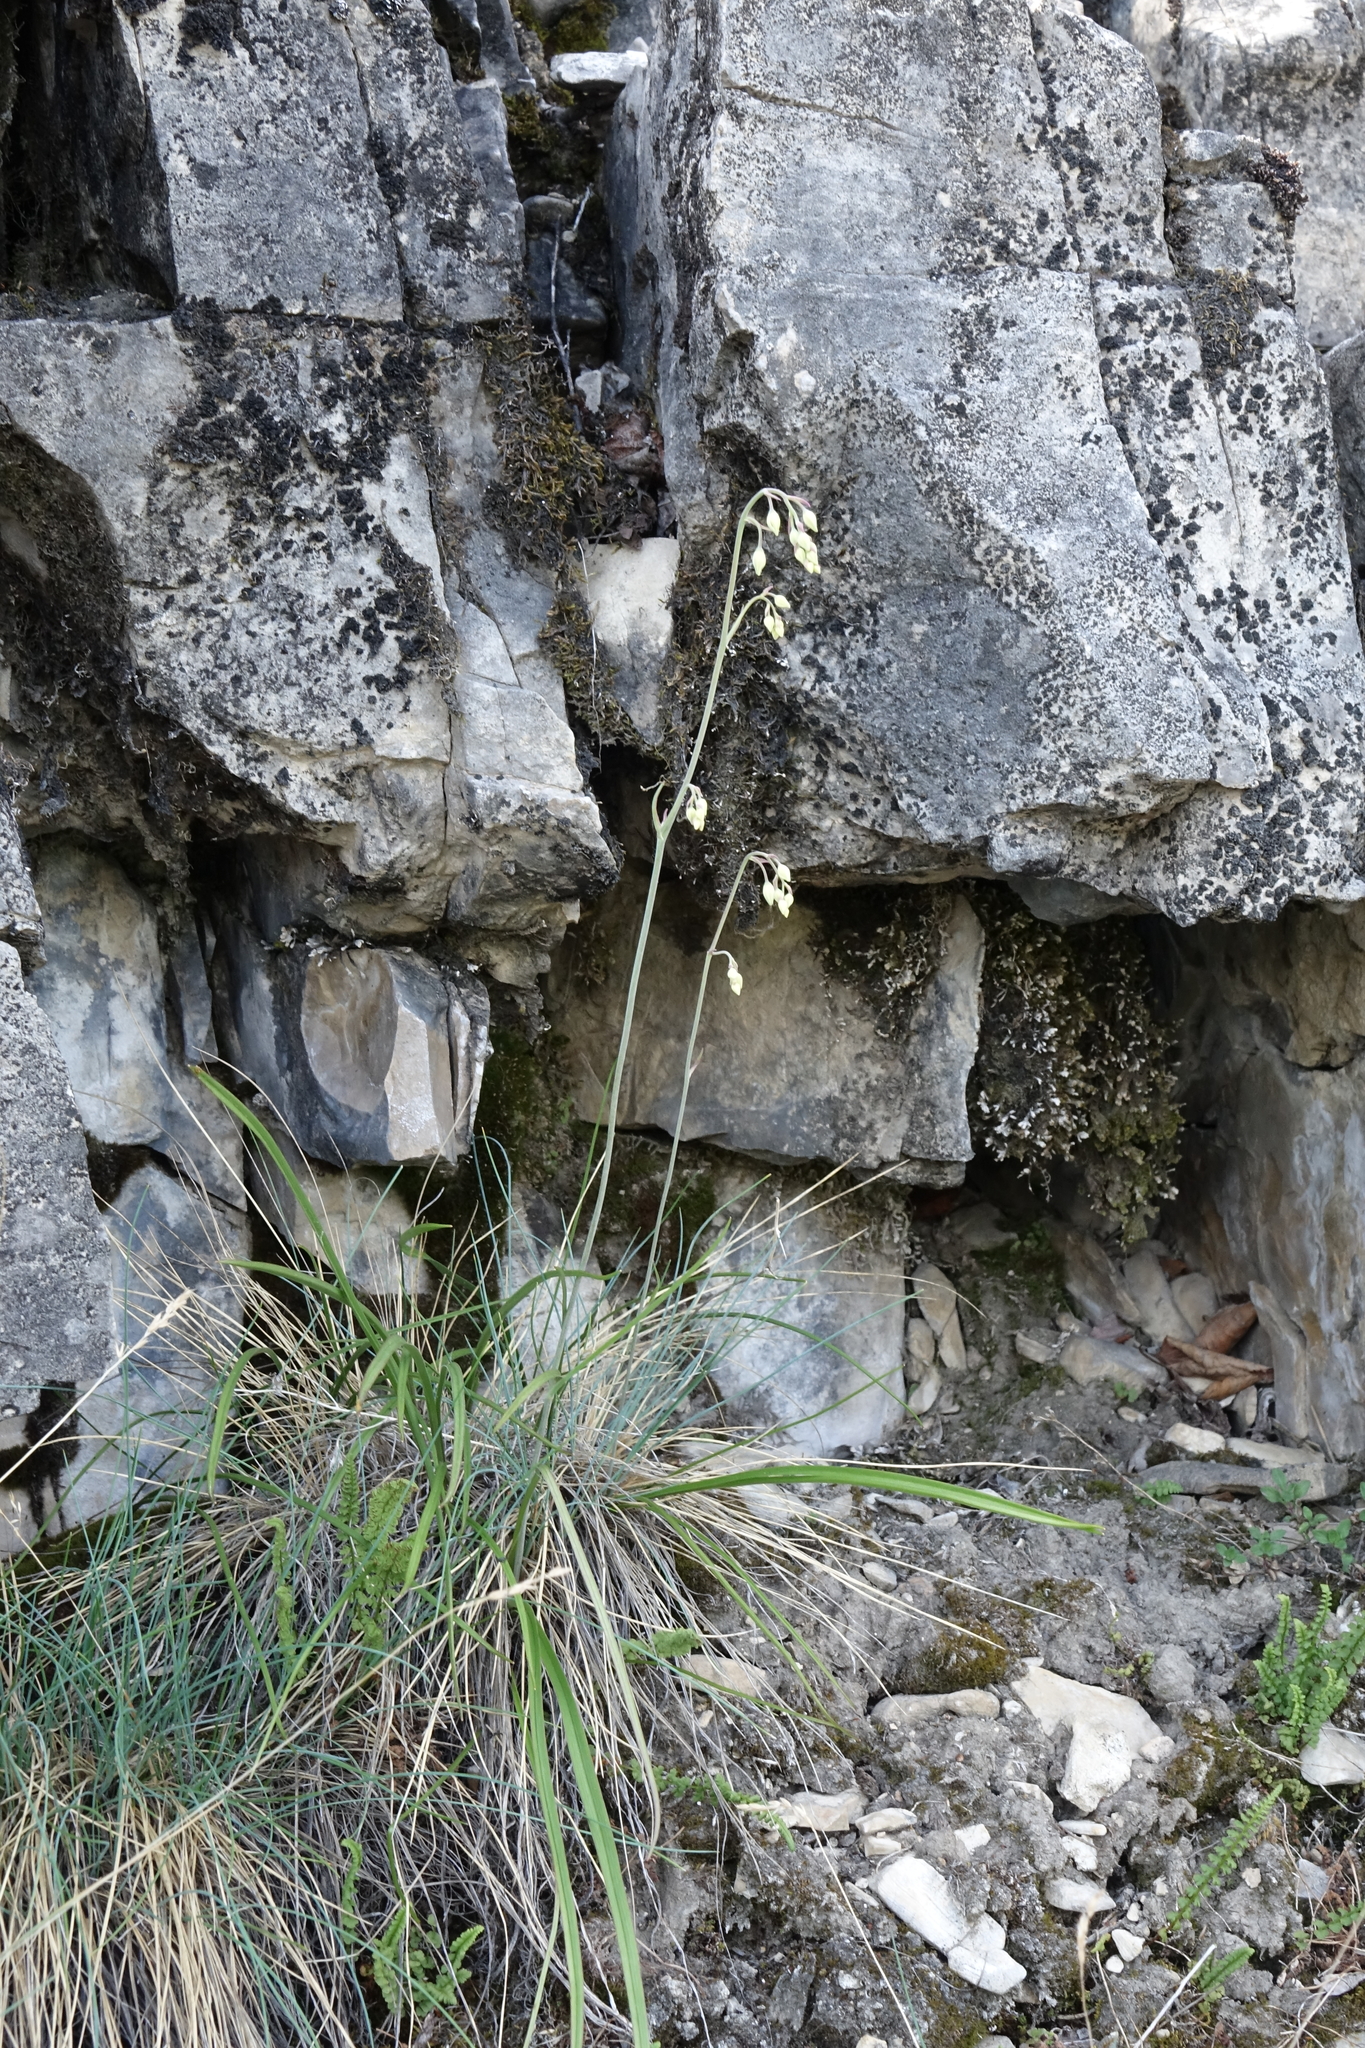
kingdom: Plantae
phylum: Tracheophyta
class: Liliopsida
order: Liliales
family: Melanthiaceae
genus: Anticlea
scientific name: Anticlea sibirica
